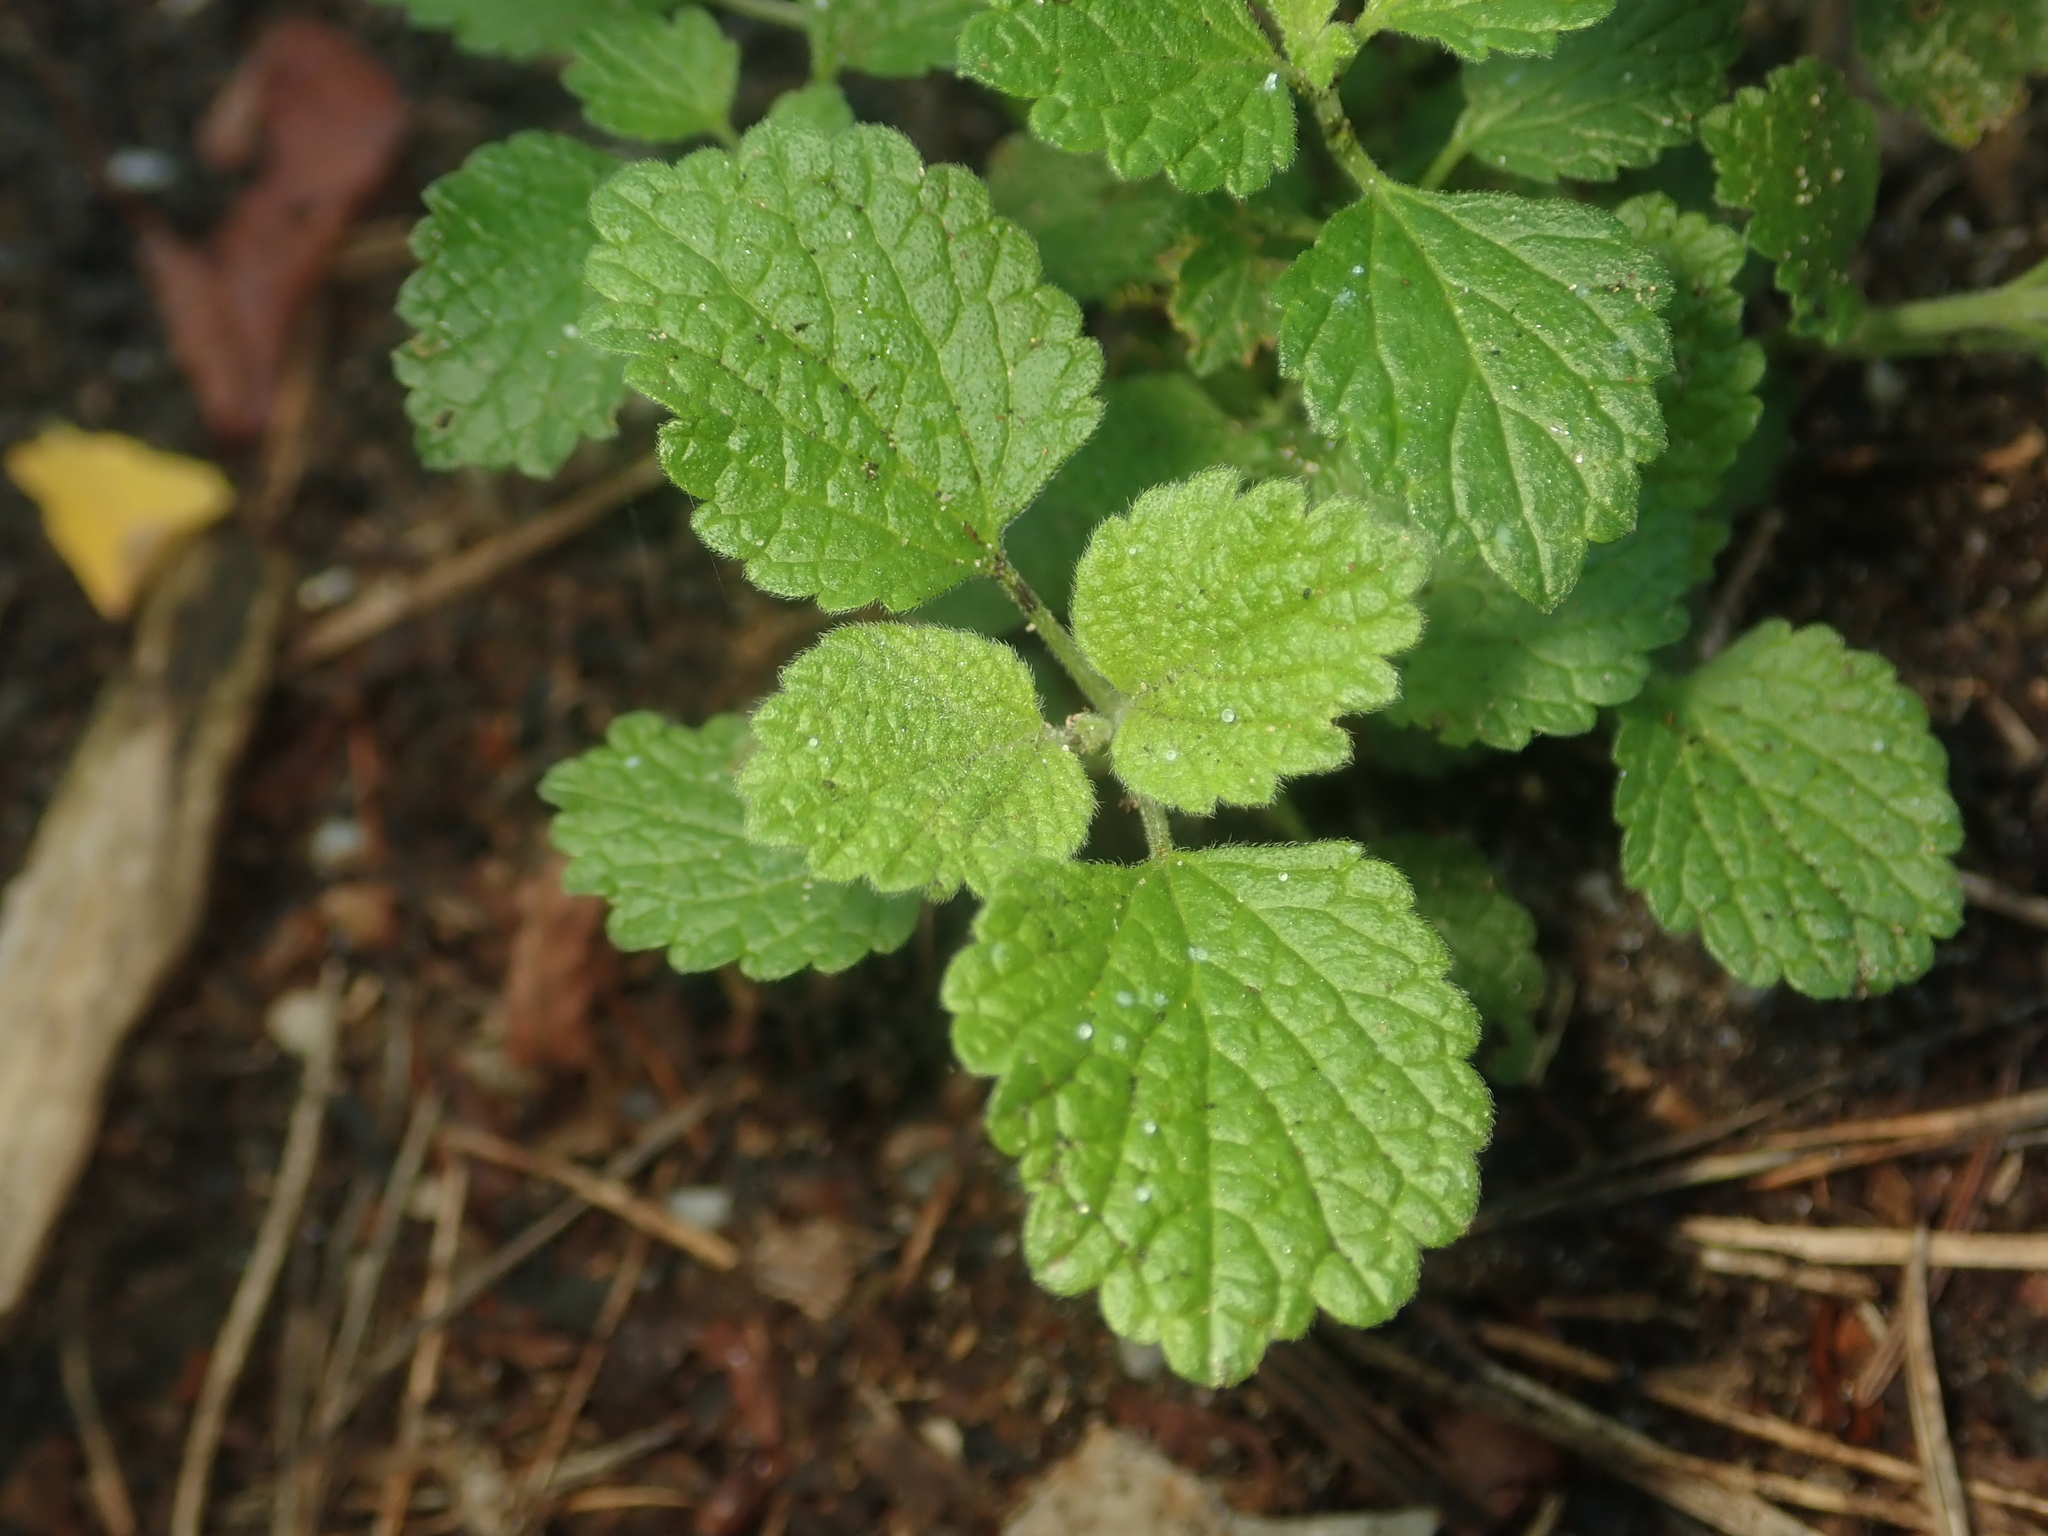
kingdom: Plantae
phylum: Tracheophyta
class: Magnoliopsida
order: Lamiales
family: Lamiaceae
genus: Ballota
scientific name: Ballota nigra
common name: Black horehound
